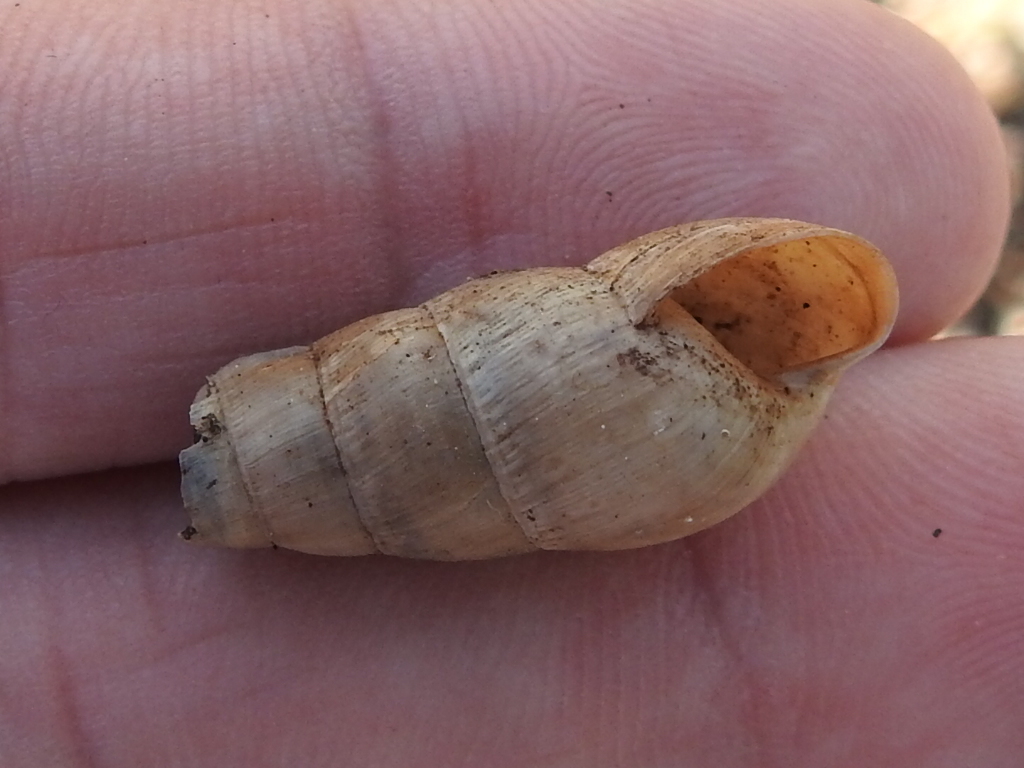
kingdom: Animalia
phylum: Mollusca
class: Gastropoda
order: Stylommatophora
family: Achatinidae
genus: Rumina
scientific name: Rumina decollata
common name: Decollate snail
